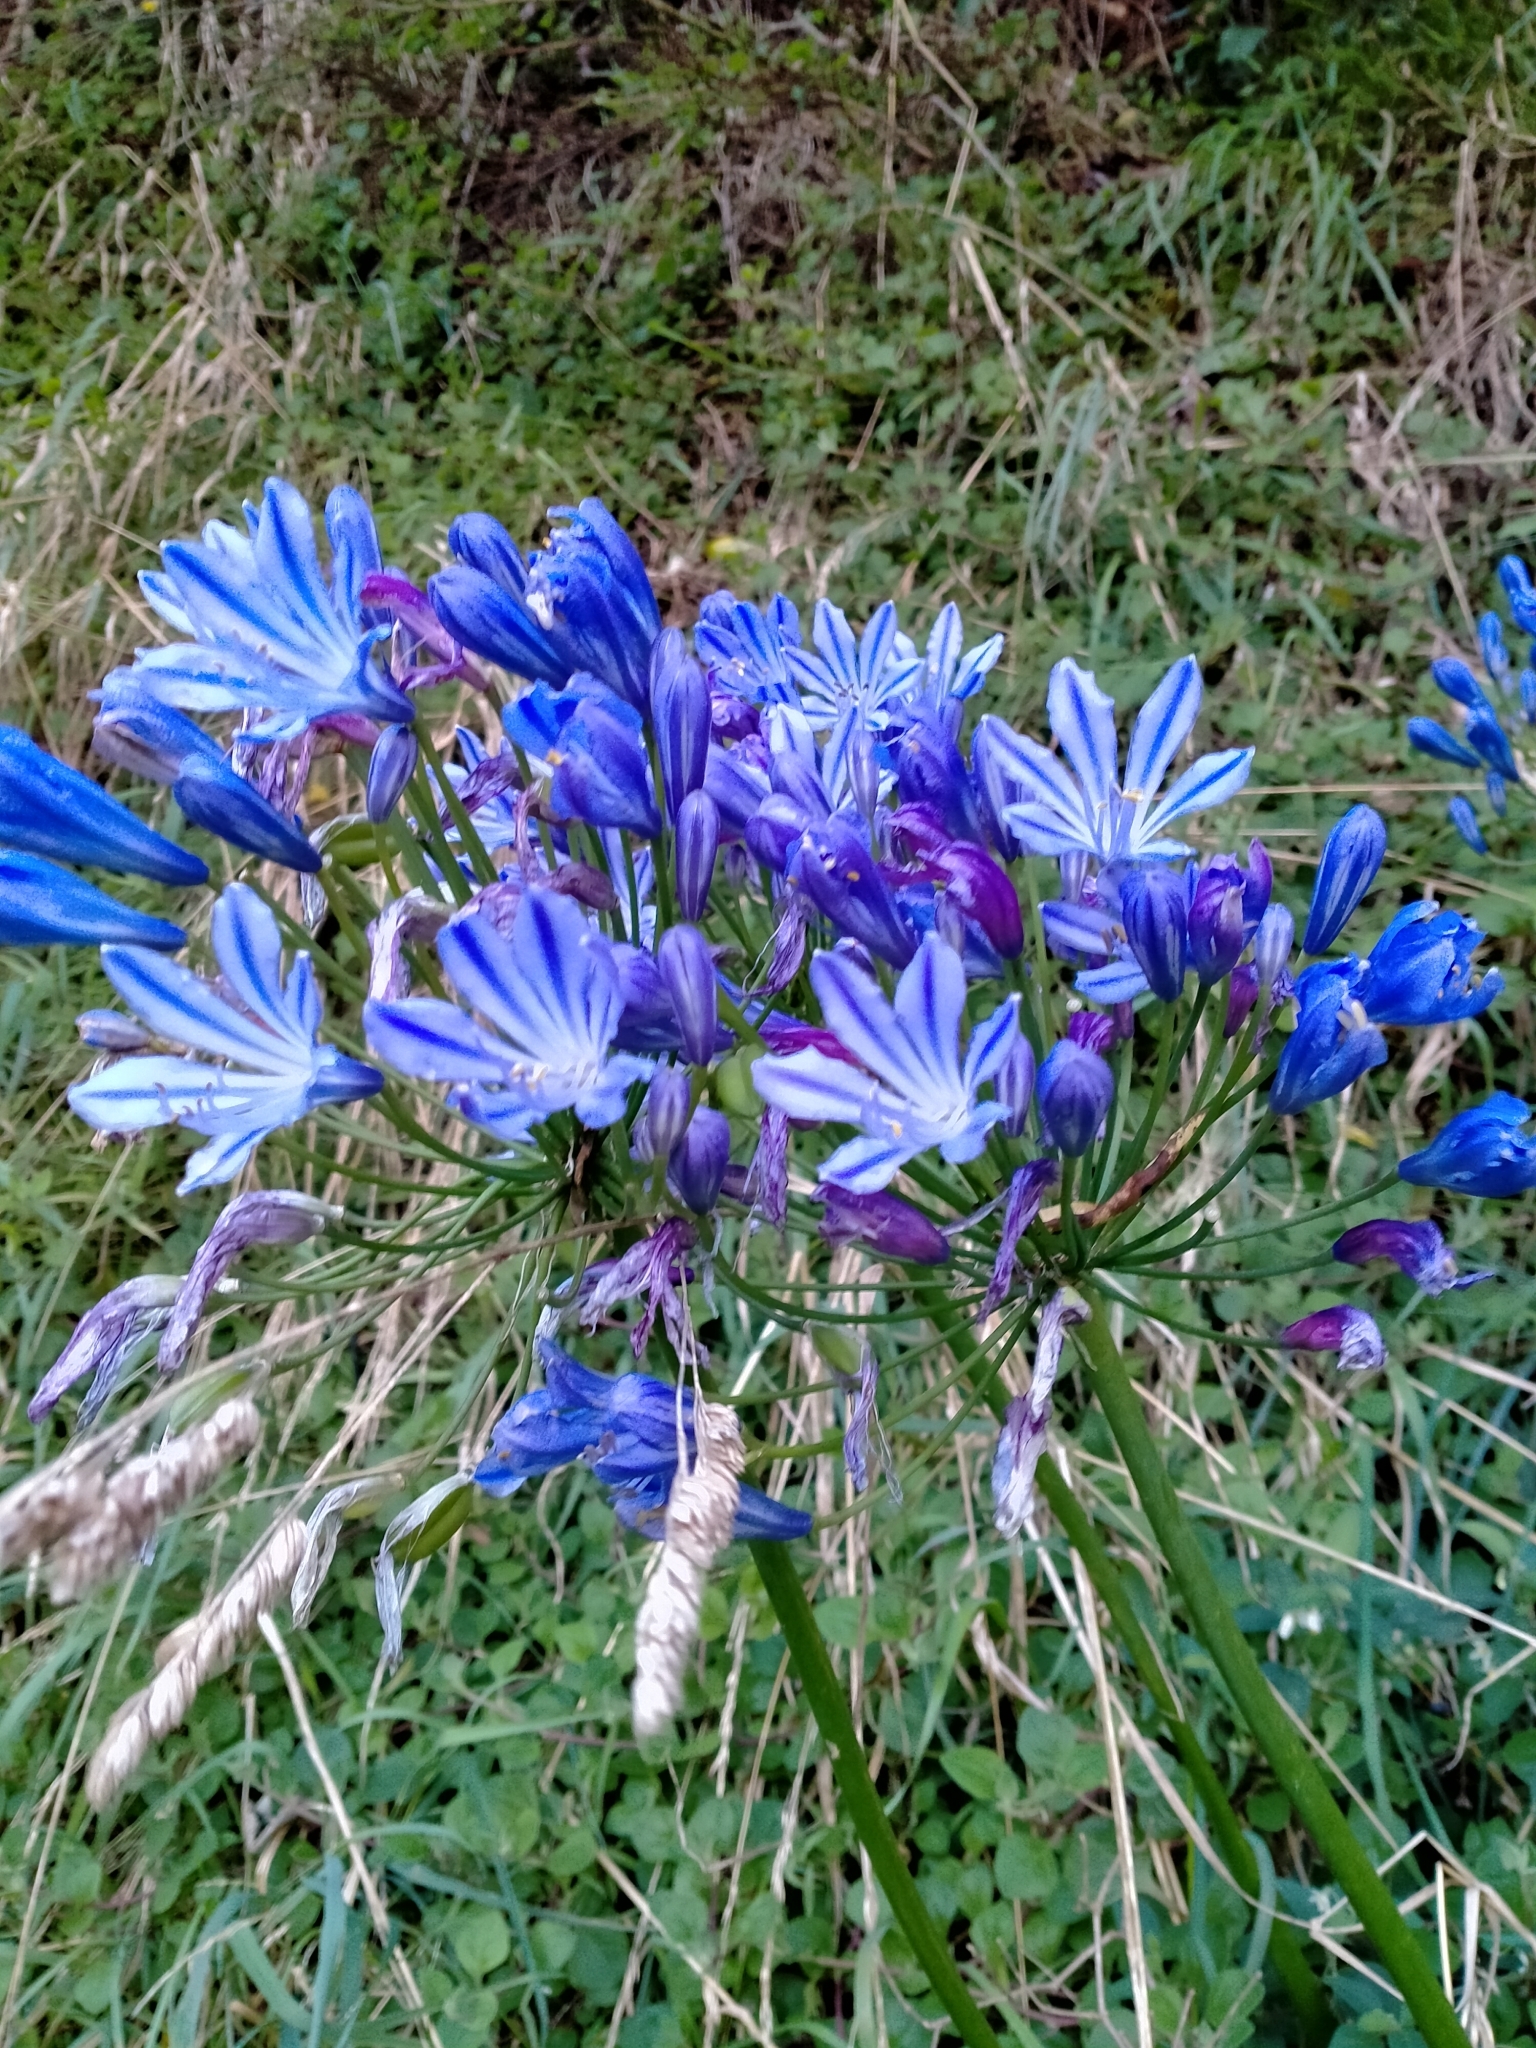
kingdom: Plantae
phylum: Tracheophyta
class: Liliopsida
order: Asparagales
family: Amaryllidaceae
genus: Agapanthus
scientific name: Agapanthus praecox
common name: African-lily
